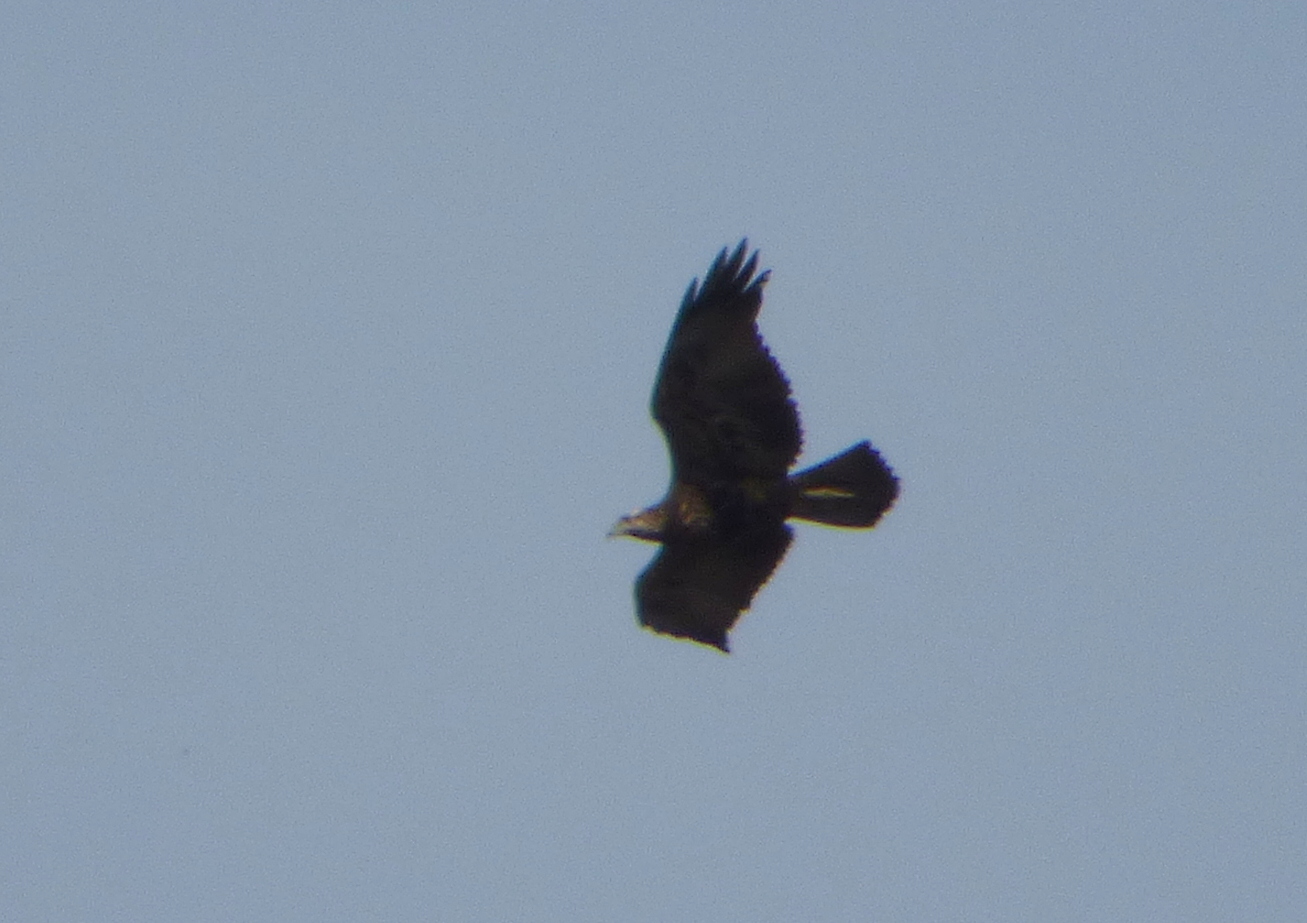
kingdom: Animalia
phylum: Chordata
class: Aves
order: Accipitriformes
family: Accipitridae
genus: Geranoaetus
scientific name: Geranoaetus melanoleucus
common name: Black-chested buzzard-eagle
